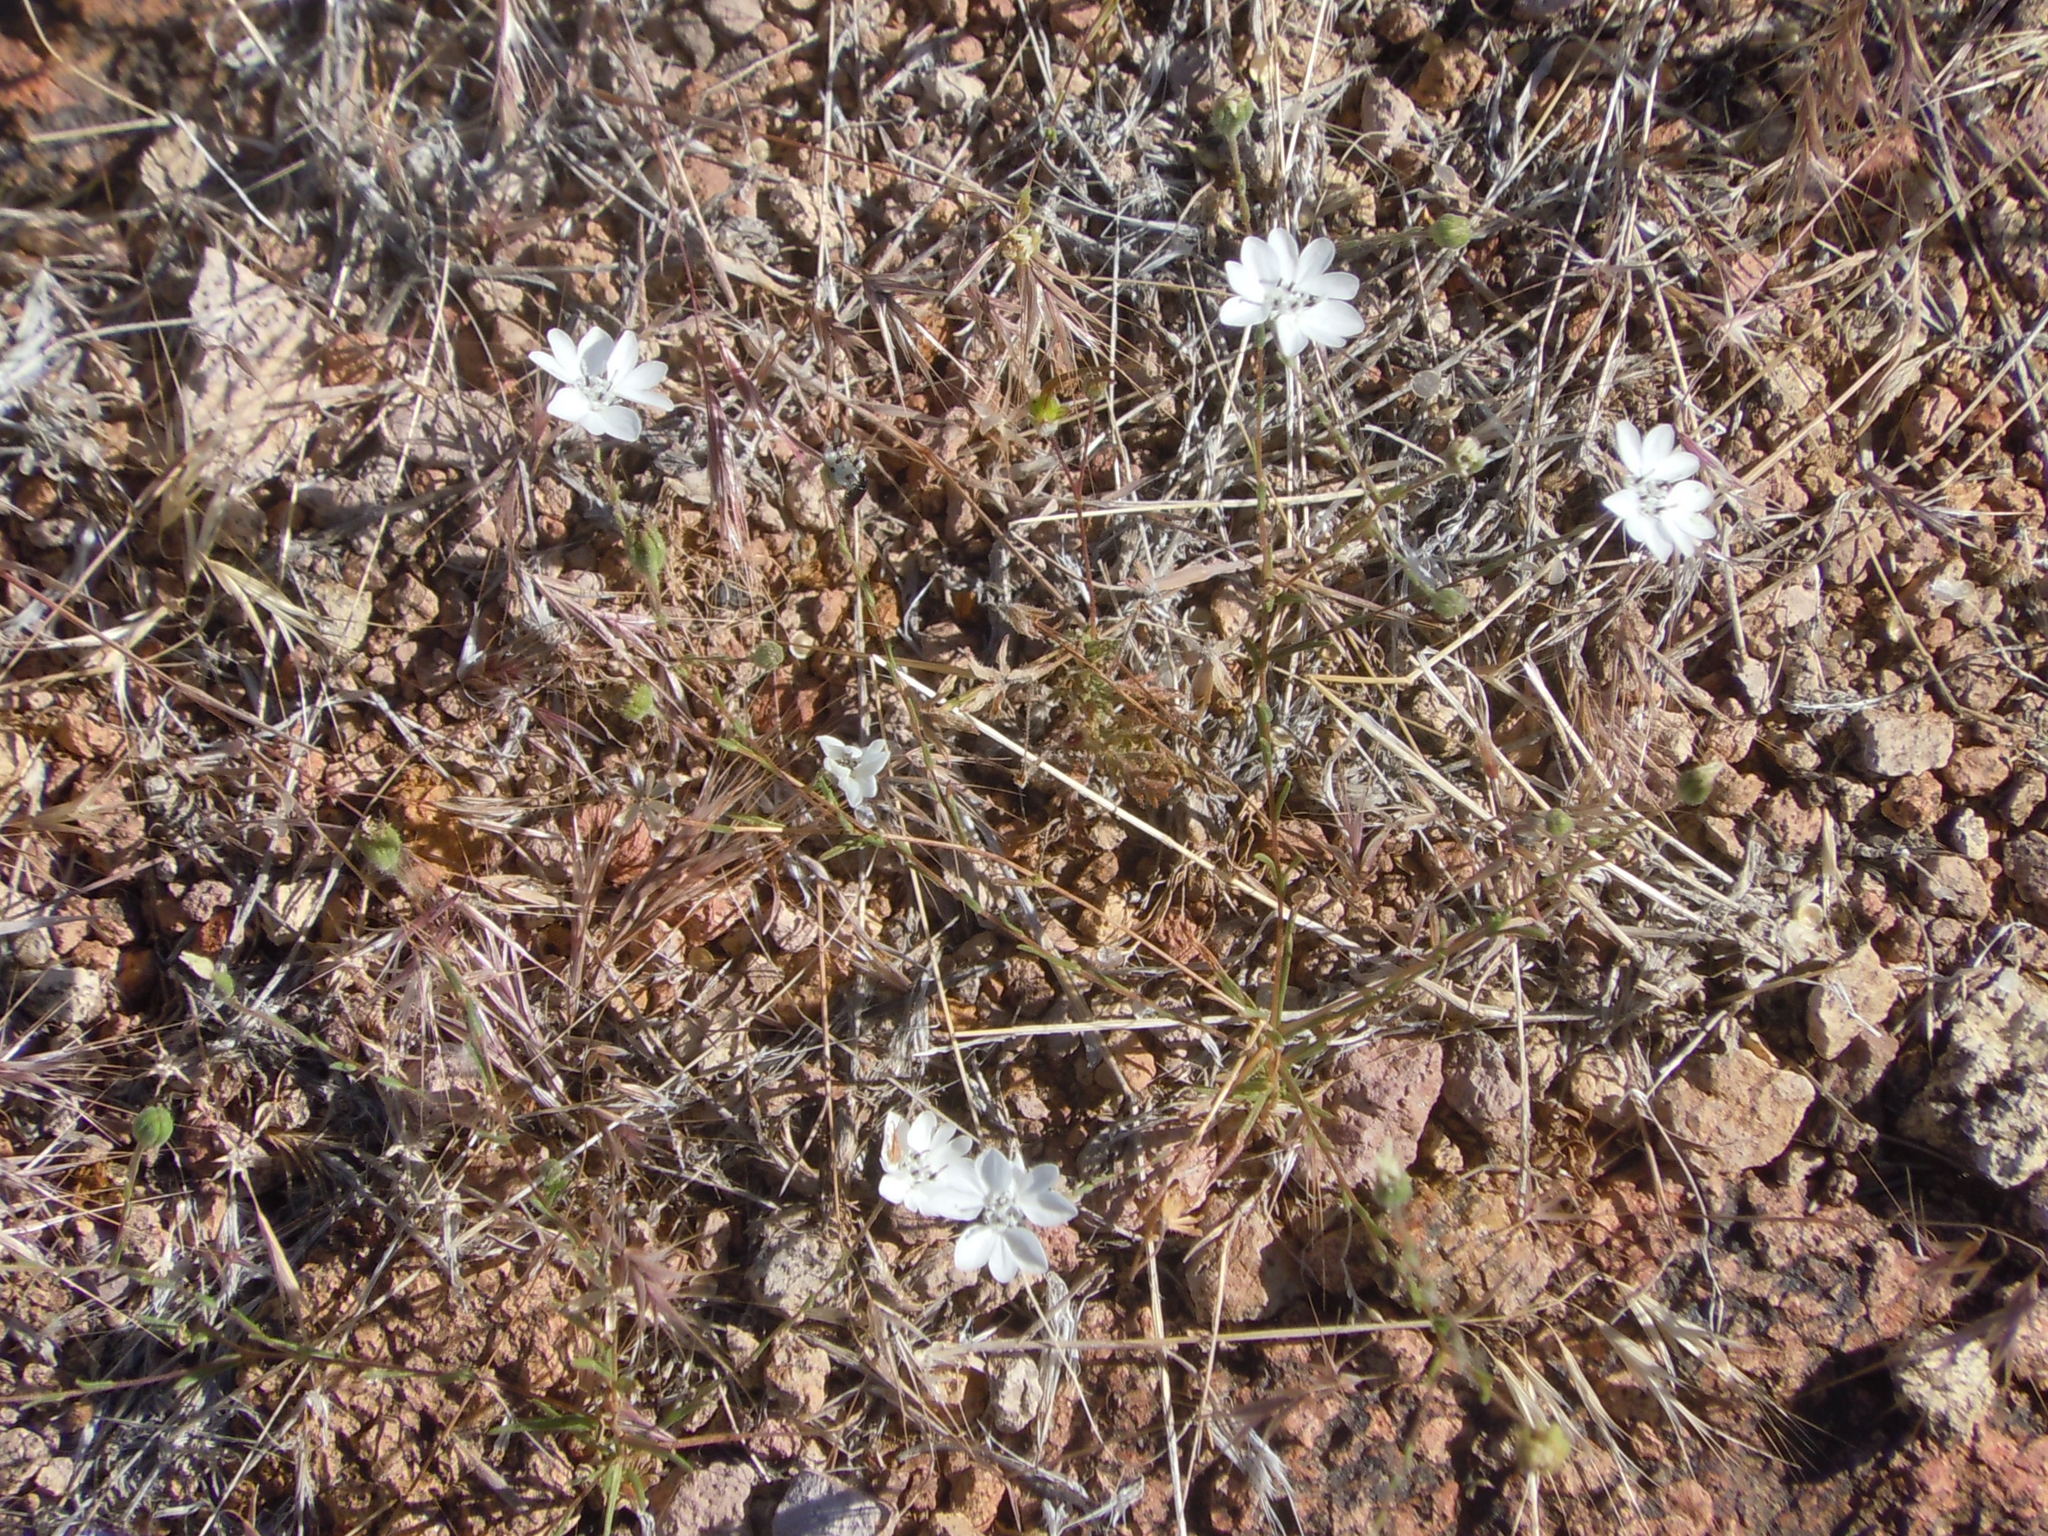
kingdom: Plantae
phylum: Tracheophyta
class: Magnoliopsida
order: Asterales
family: Asteraceae
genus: Blepharipappus
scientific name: Blepharipappus scaber
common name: Rough blepharipappus
